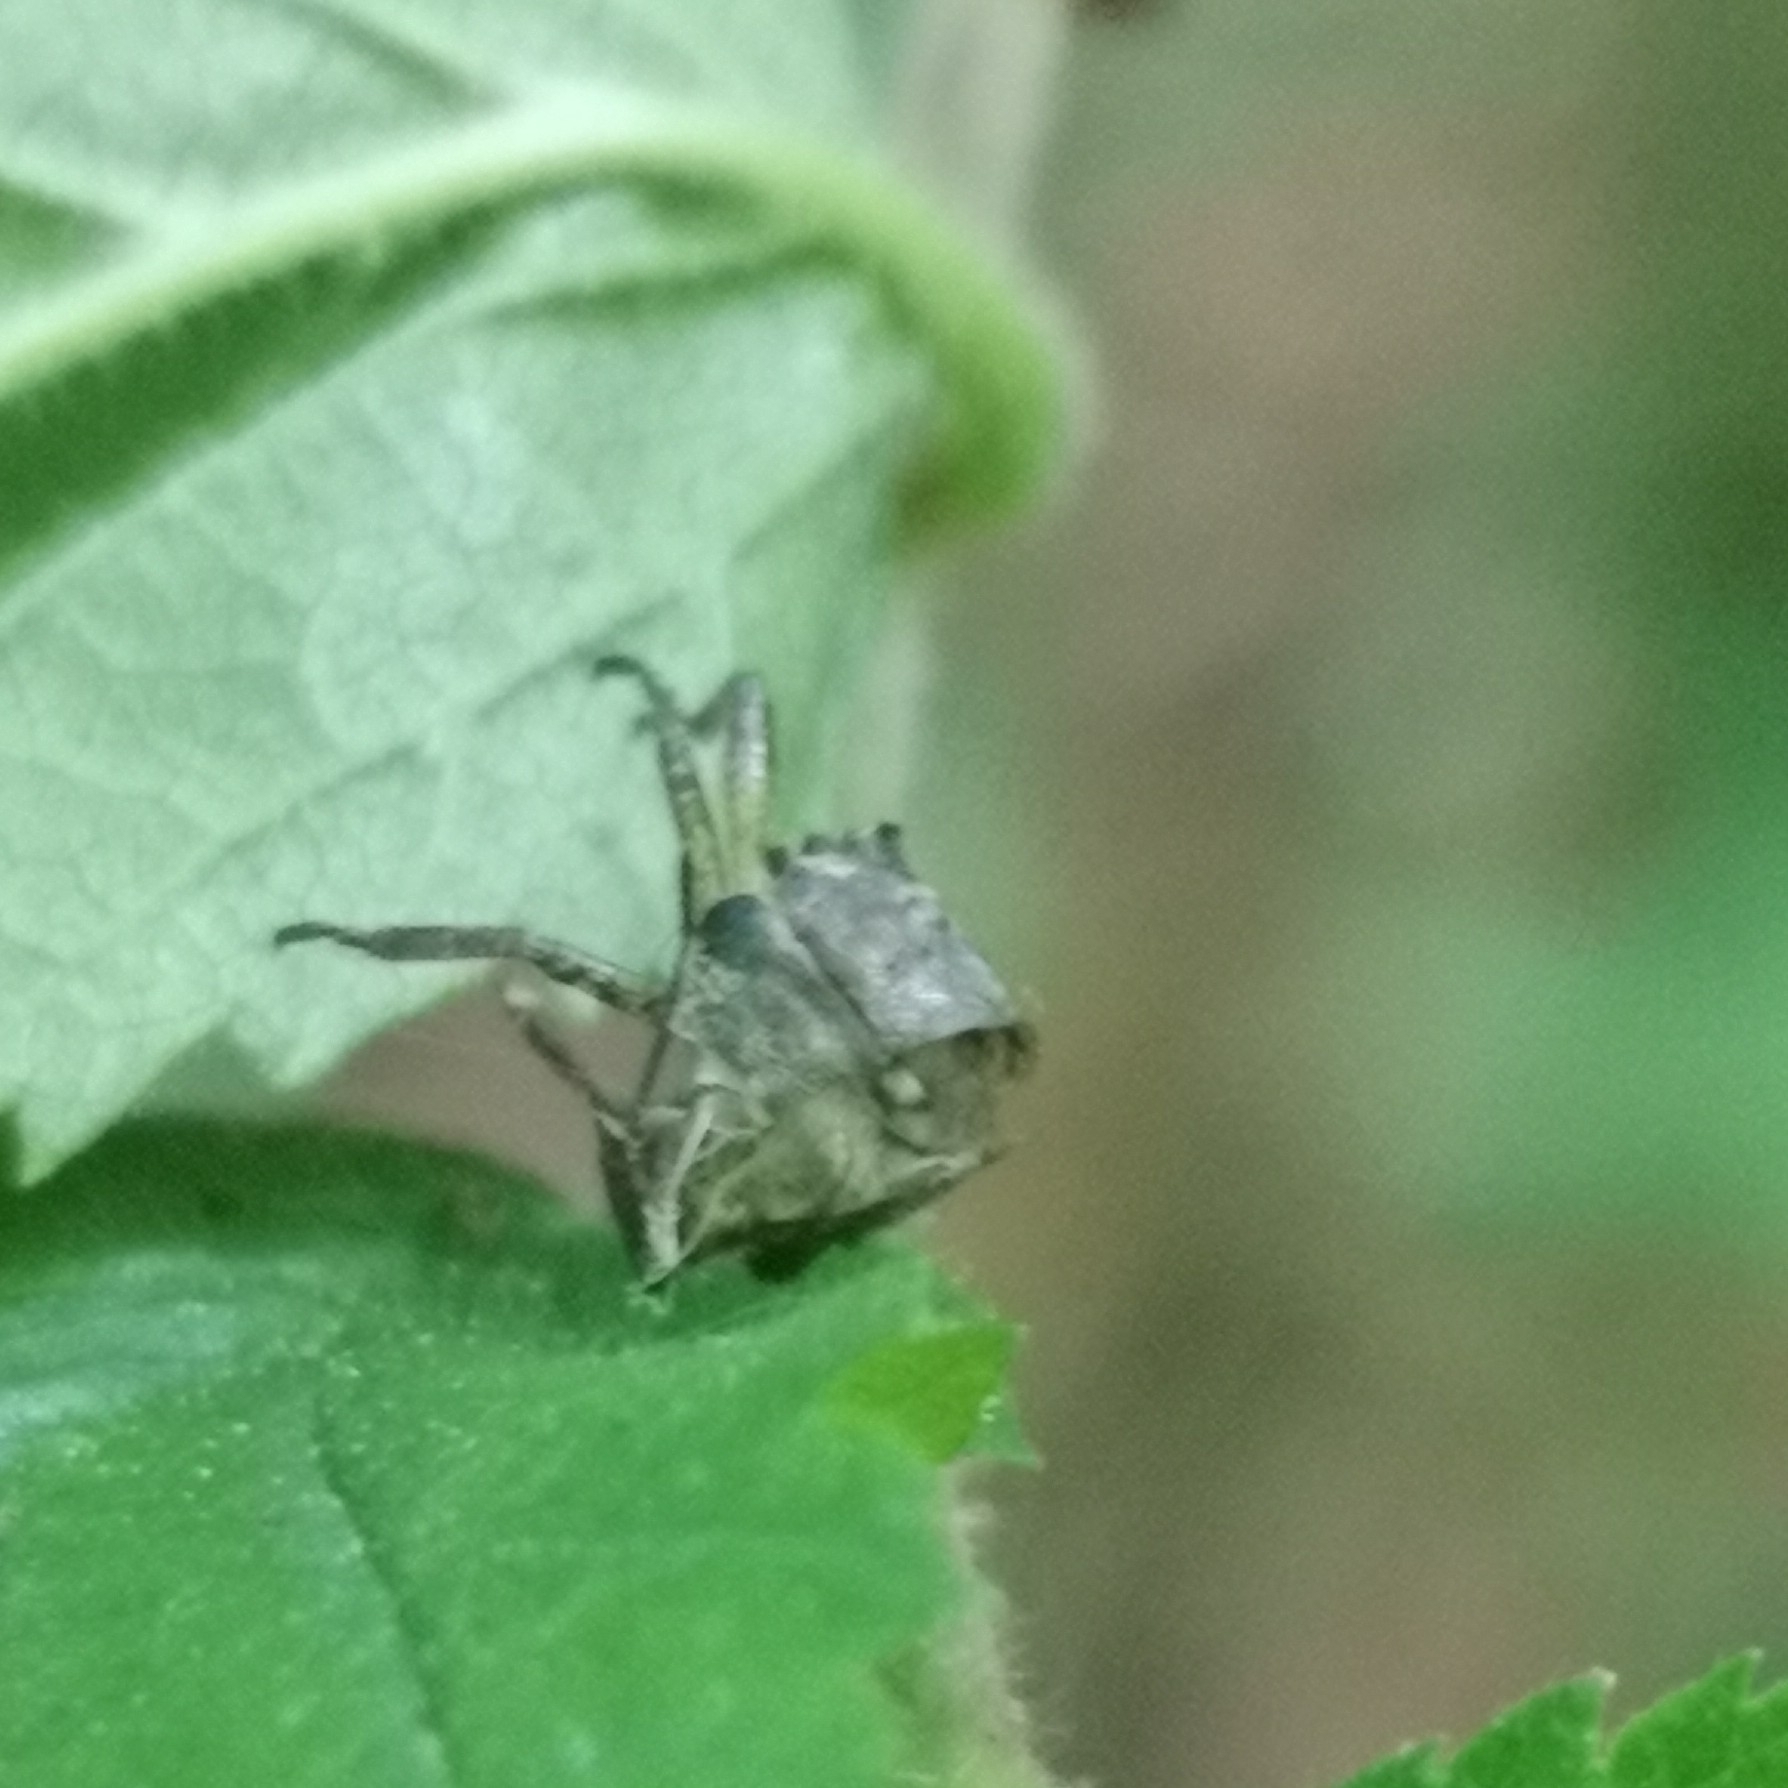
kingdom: Animalia
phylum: Arthropoda
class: Insecta
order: Hemiptera
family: Pentatomidae
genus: Pentatoma
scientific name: Pentatoma rufipes
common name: Forest bug
